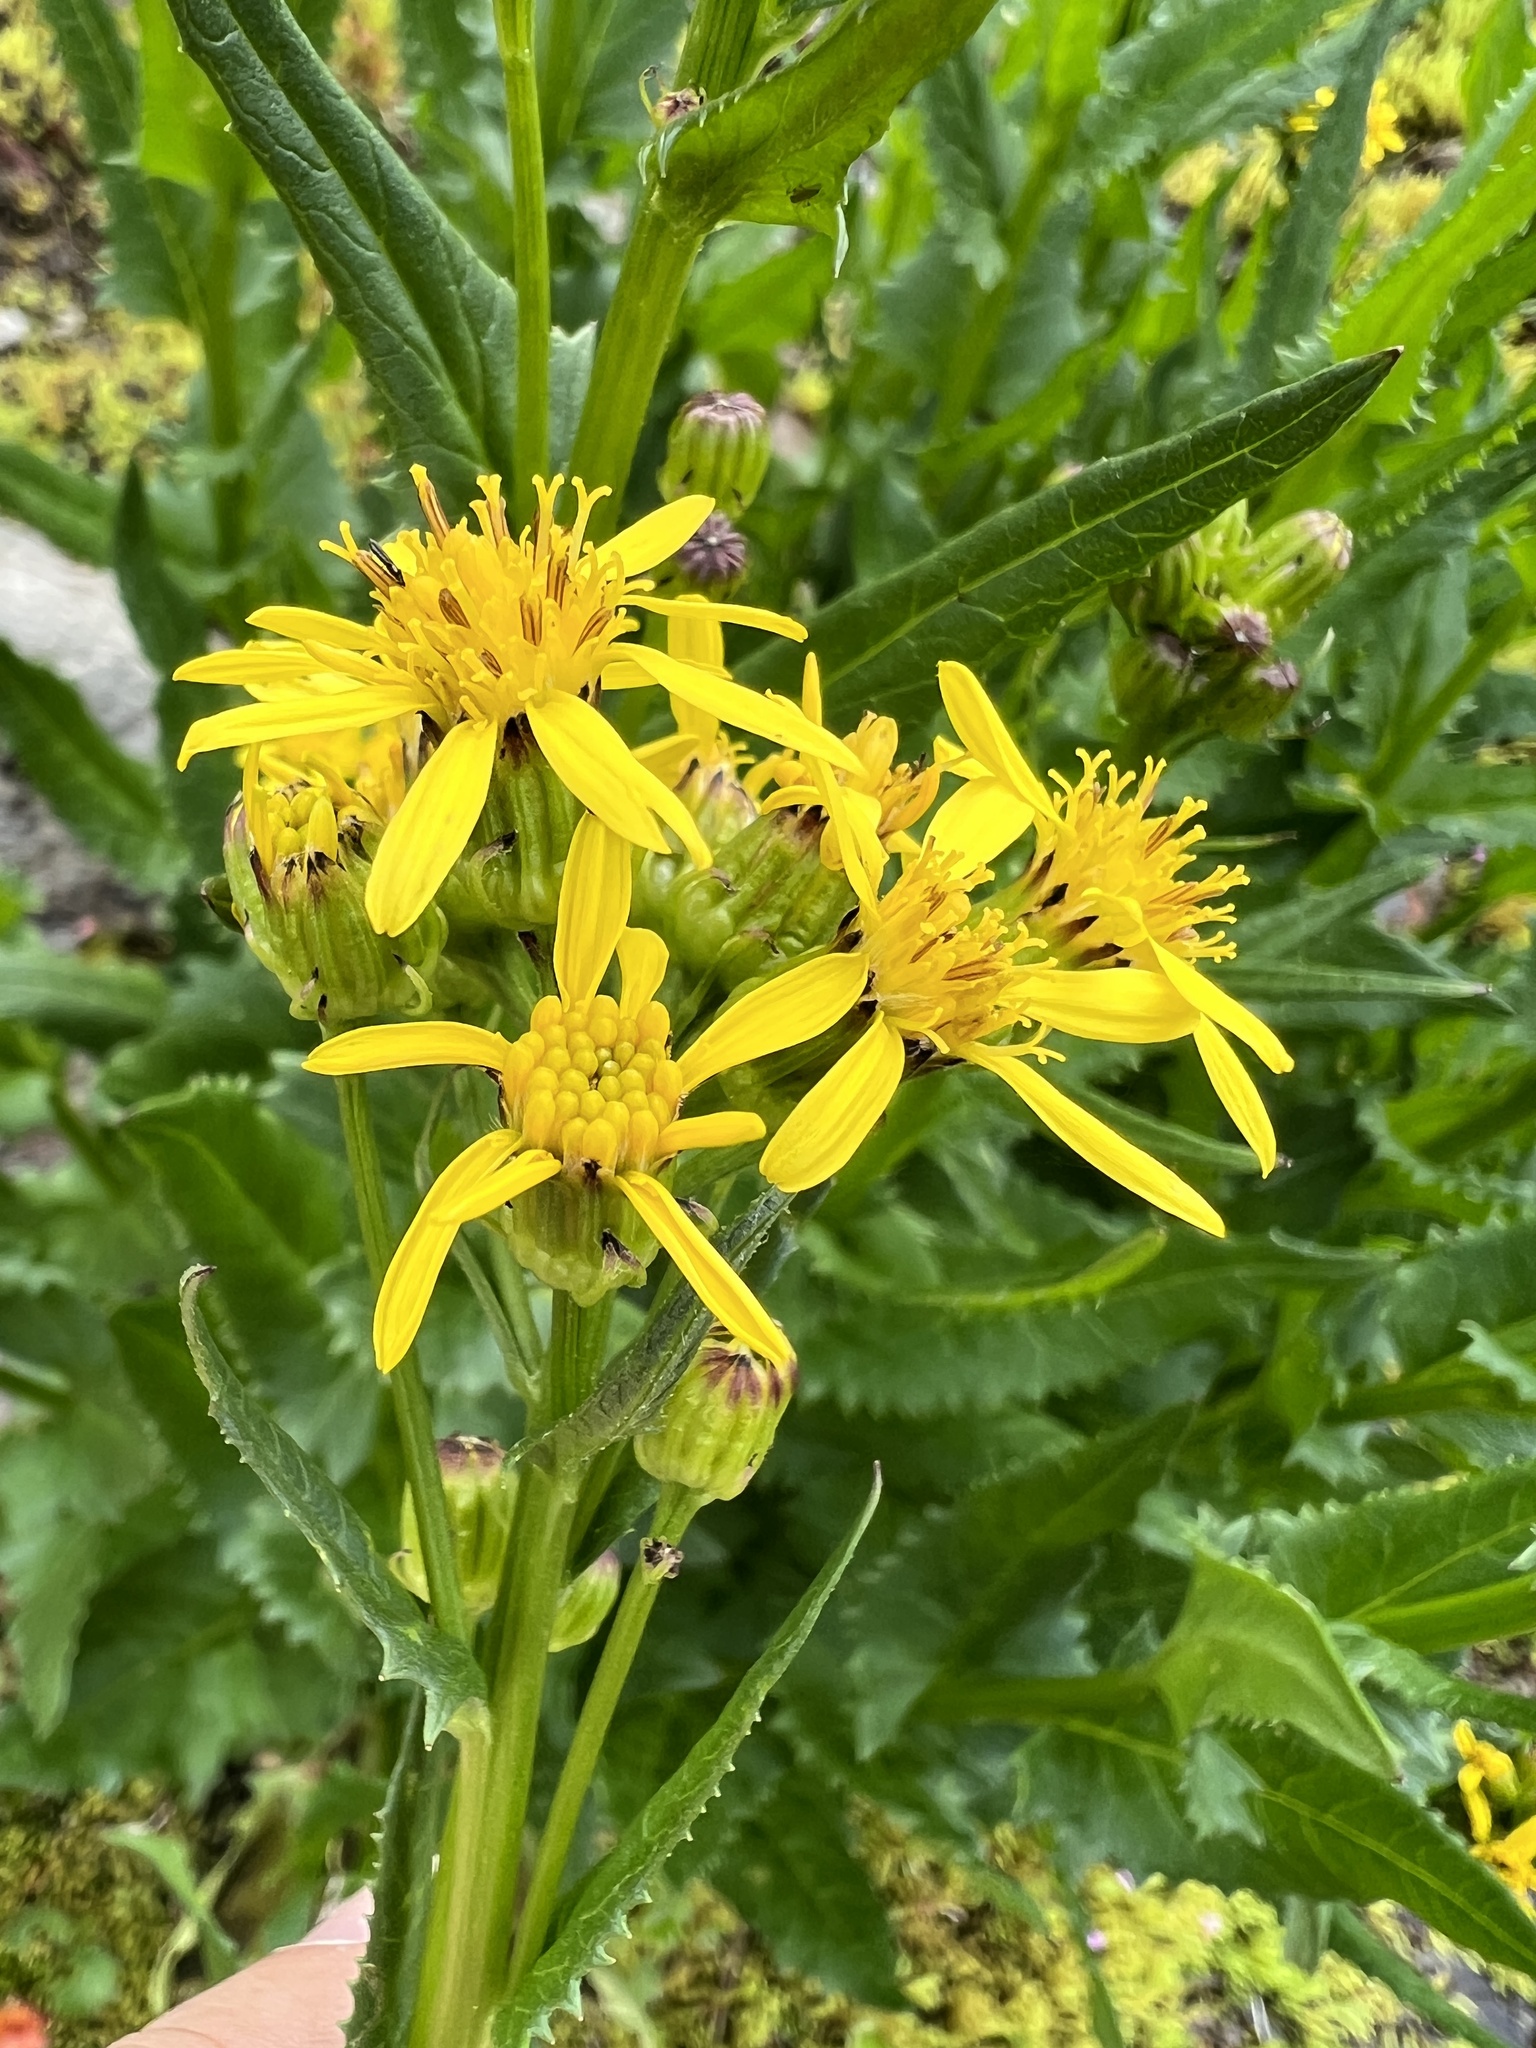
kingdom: Plantae
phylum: Tracheophyta
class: Magnoliopsida
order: Asterales
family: Asteraceae
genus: Senecio
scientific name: Senecio triangularis
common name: Arrowleaf butterweed
